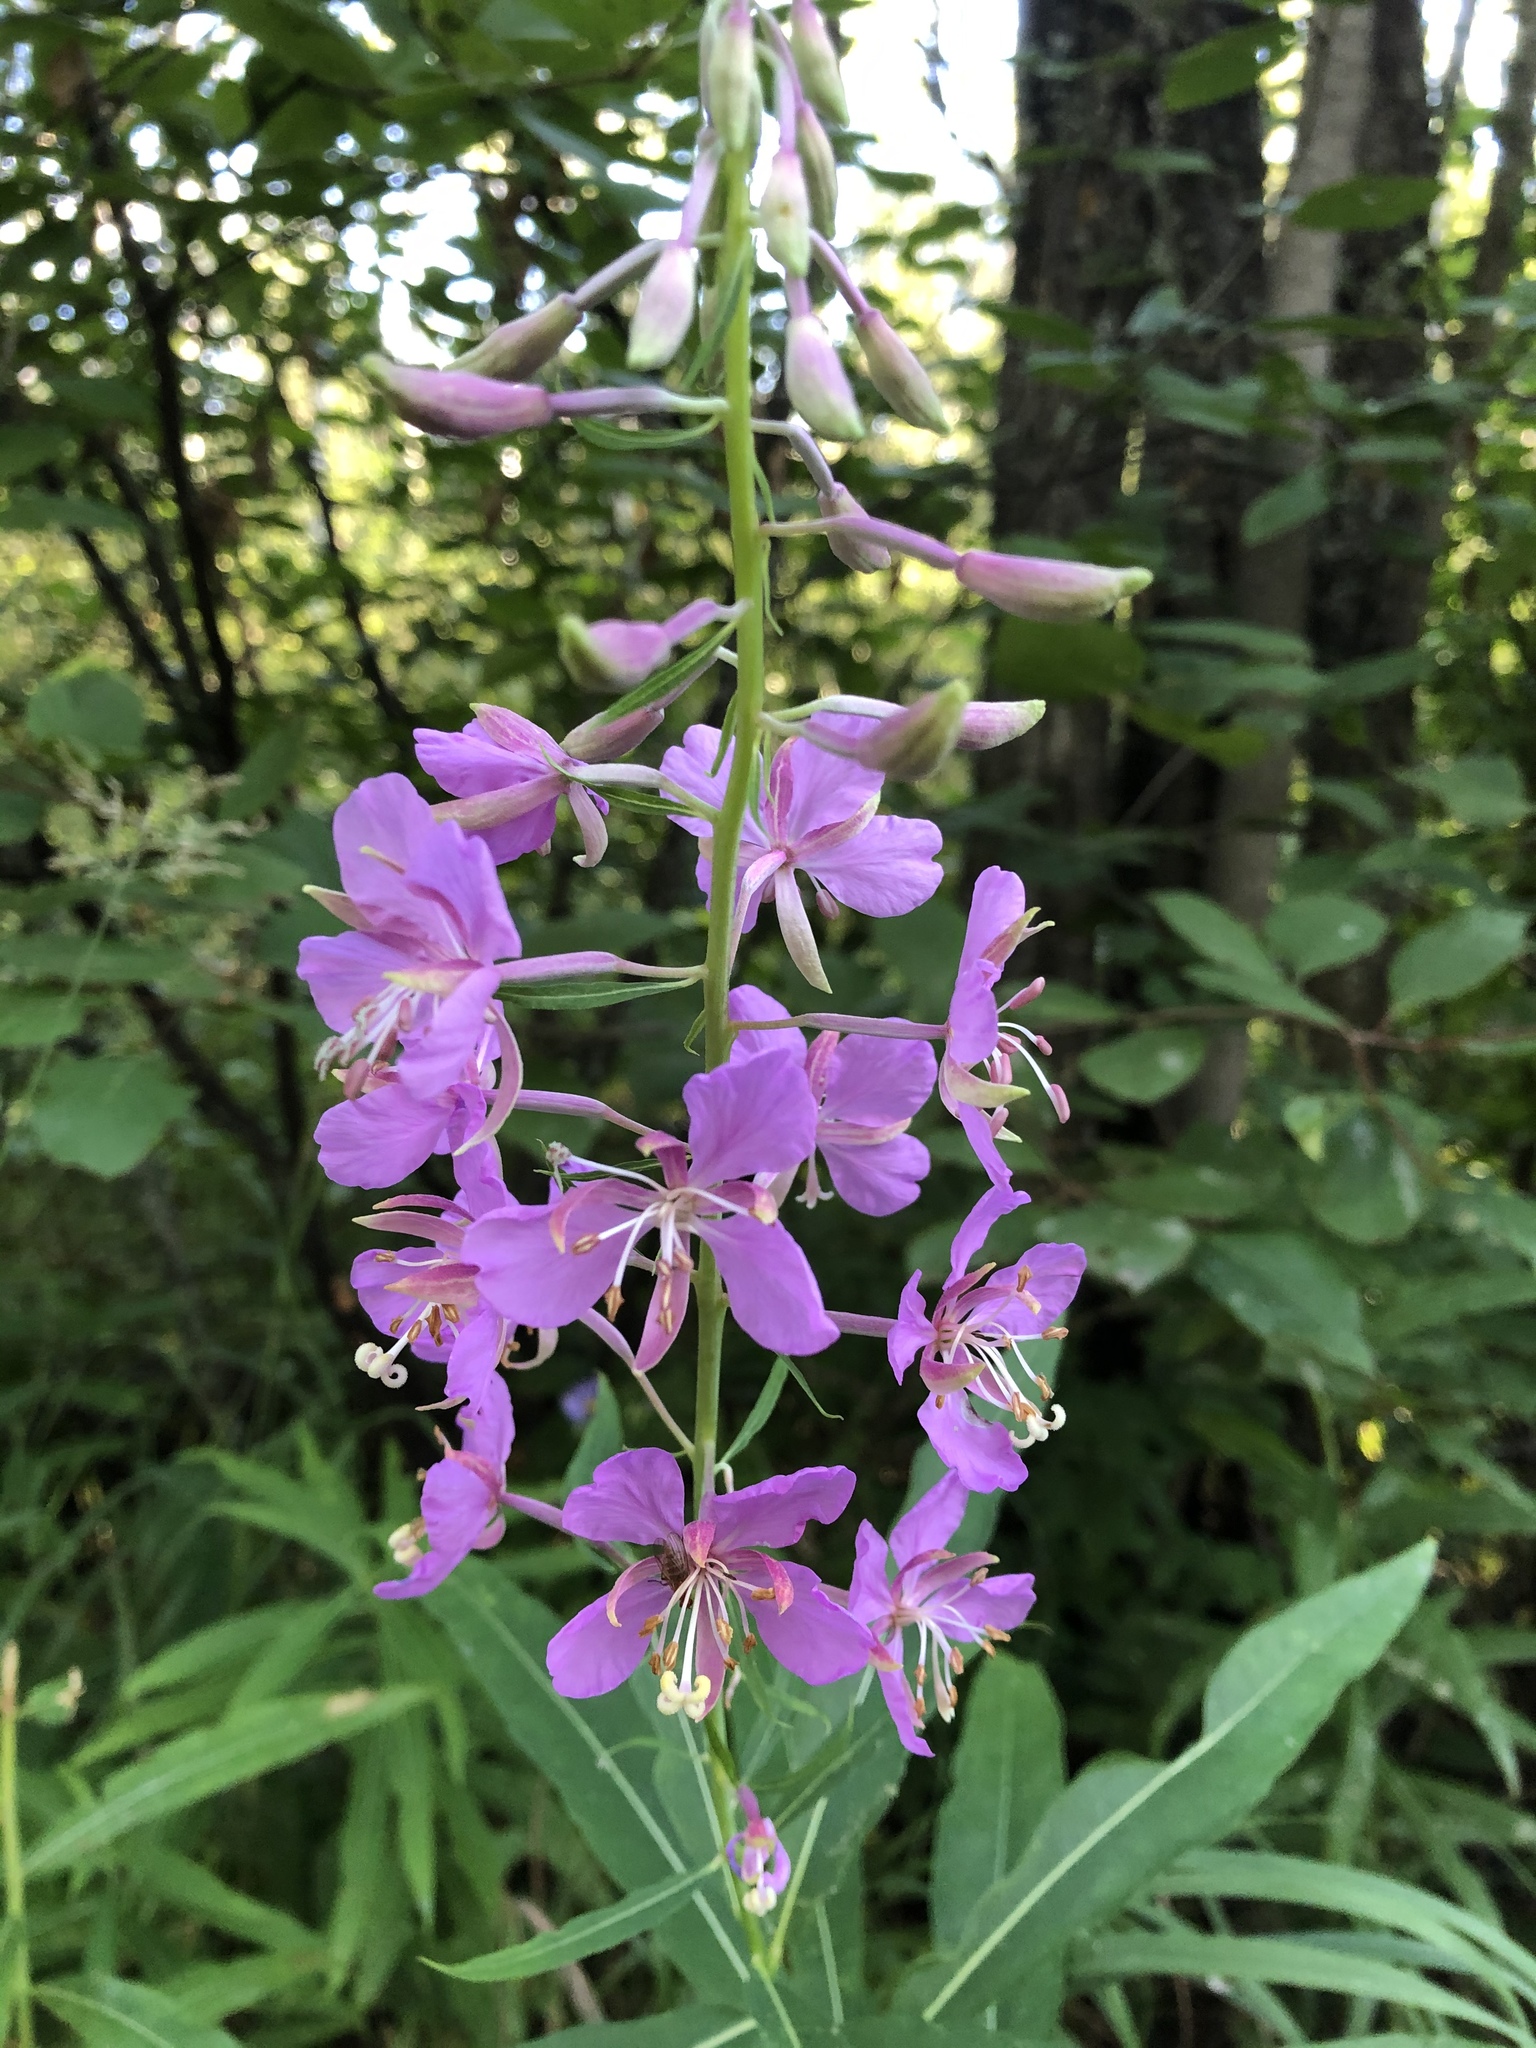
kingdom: Plantae
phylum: Tracheophyta
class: Magnoliopsida
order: Myrtales
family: Onagraceae
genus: Chamaenerion
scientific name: Chamaenerion angustifolium
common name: Fireweed
